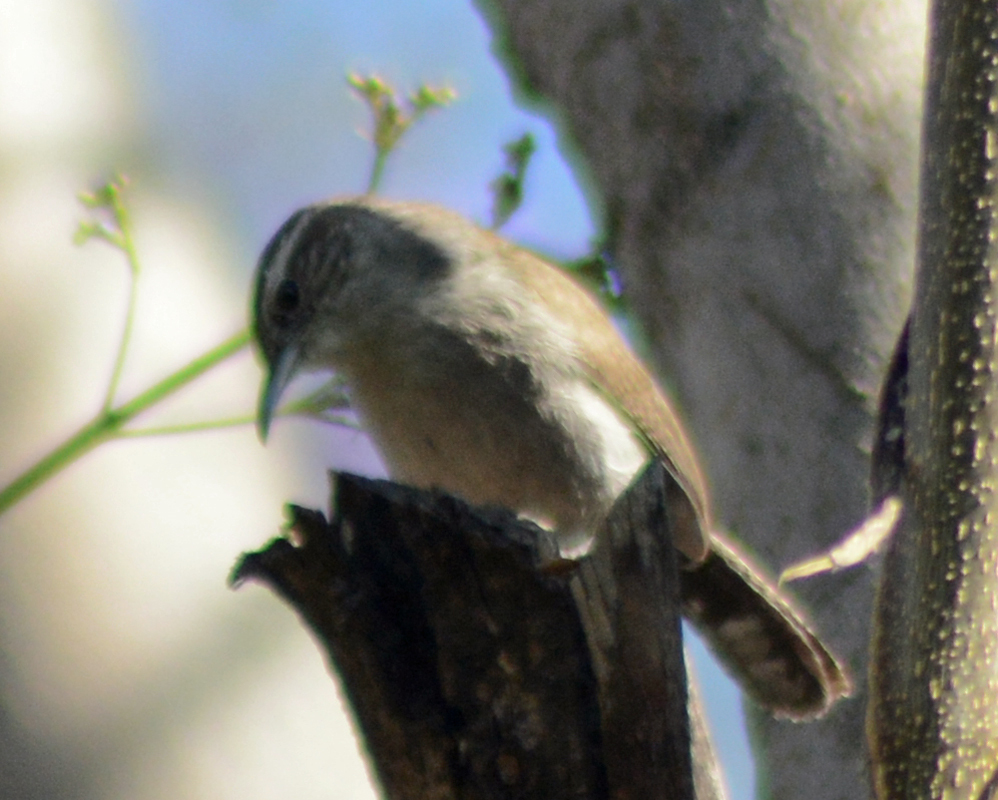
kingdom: Animalia
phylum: Chordata
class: Aves
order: Passeriformes
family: Troglodytidae
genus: Thryomanes
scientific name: Thryomanes bewickii
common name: Bewick's wren
